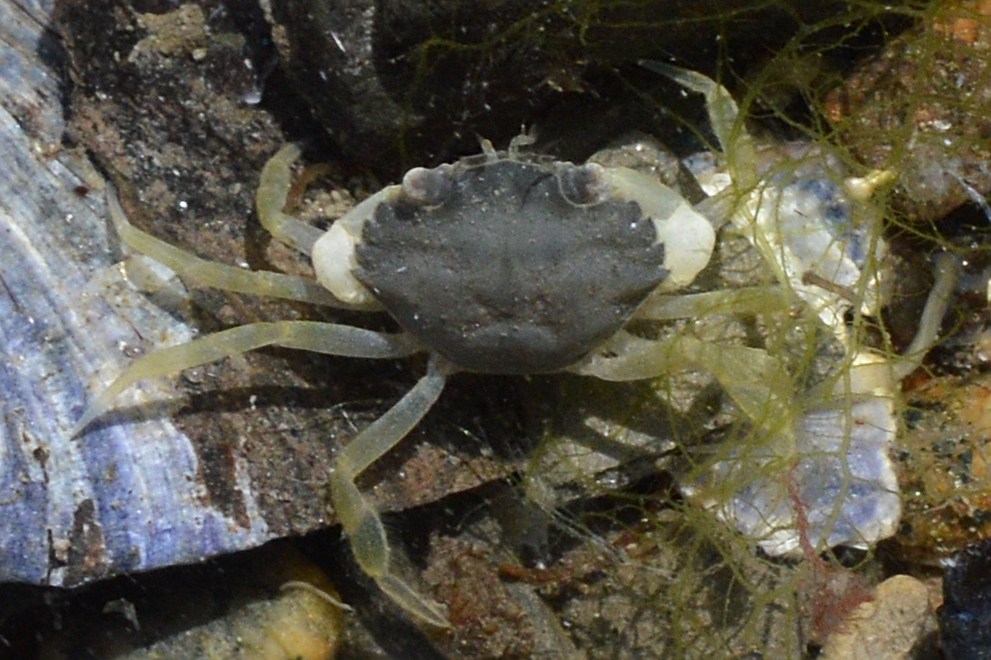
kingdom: Animalia
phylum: Arthropoda
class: Malacostraca
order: Decapoda
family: Carcinidae
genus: Carcinus
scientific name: Carcinus maenas
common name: European green crab
